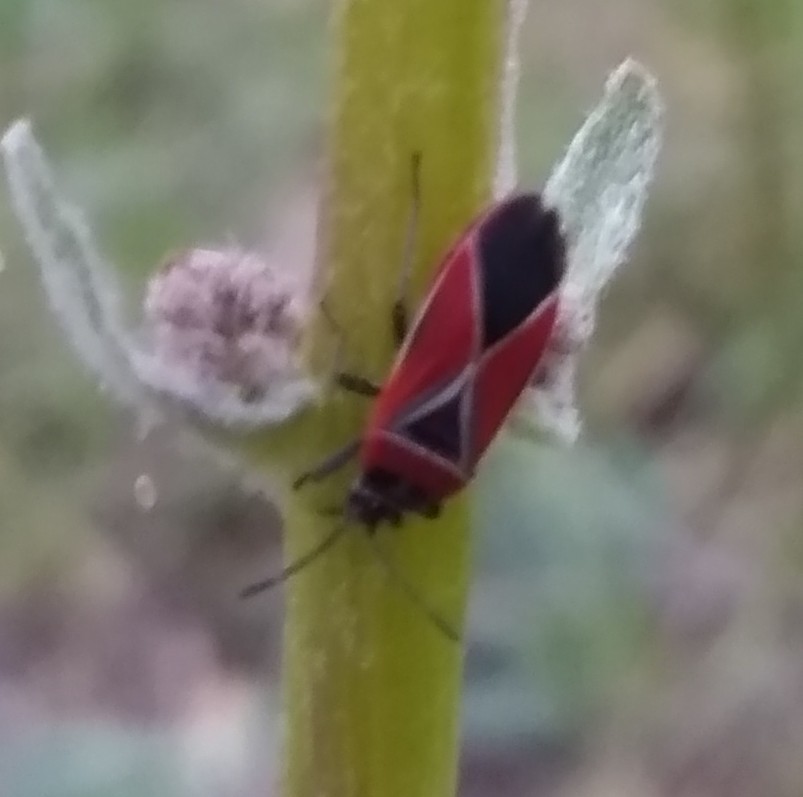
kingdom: Animalia
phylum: Arthropoda
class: Insecta
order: Hemiptera
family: Lygaeidae
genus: Neacoryphus
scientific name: Neacoryphus bicrucis
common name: Lygaeid bug
